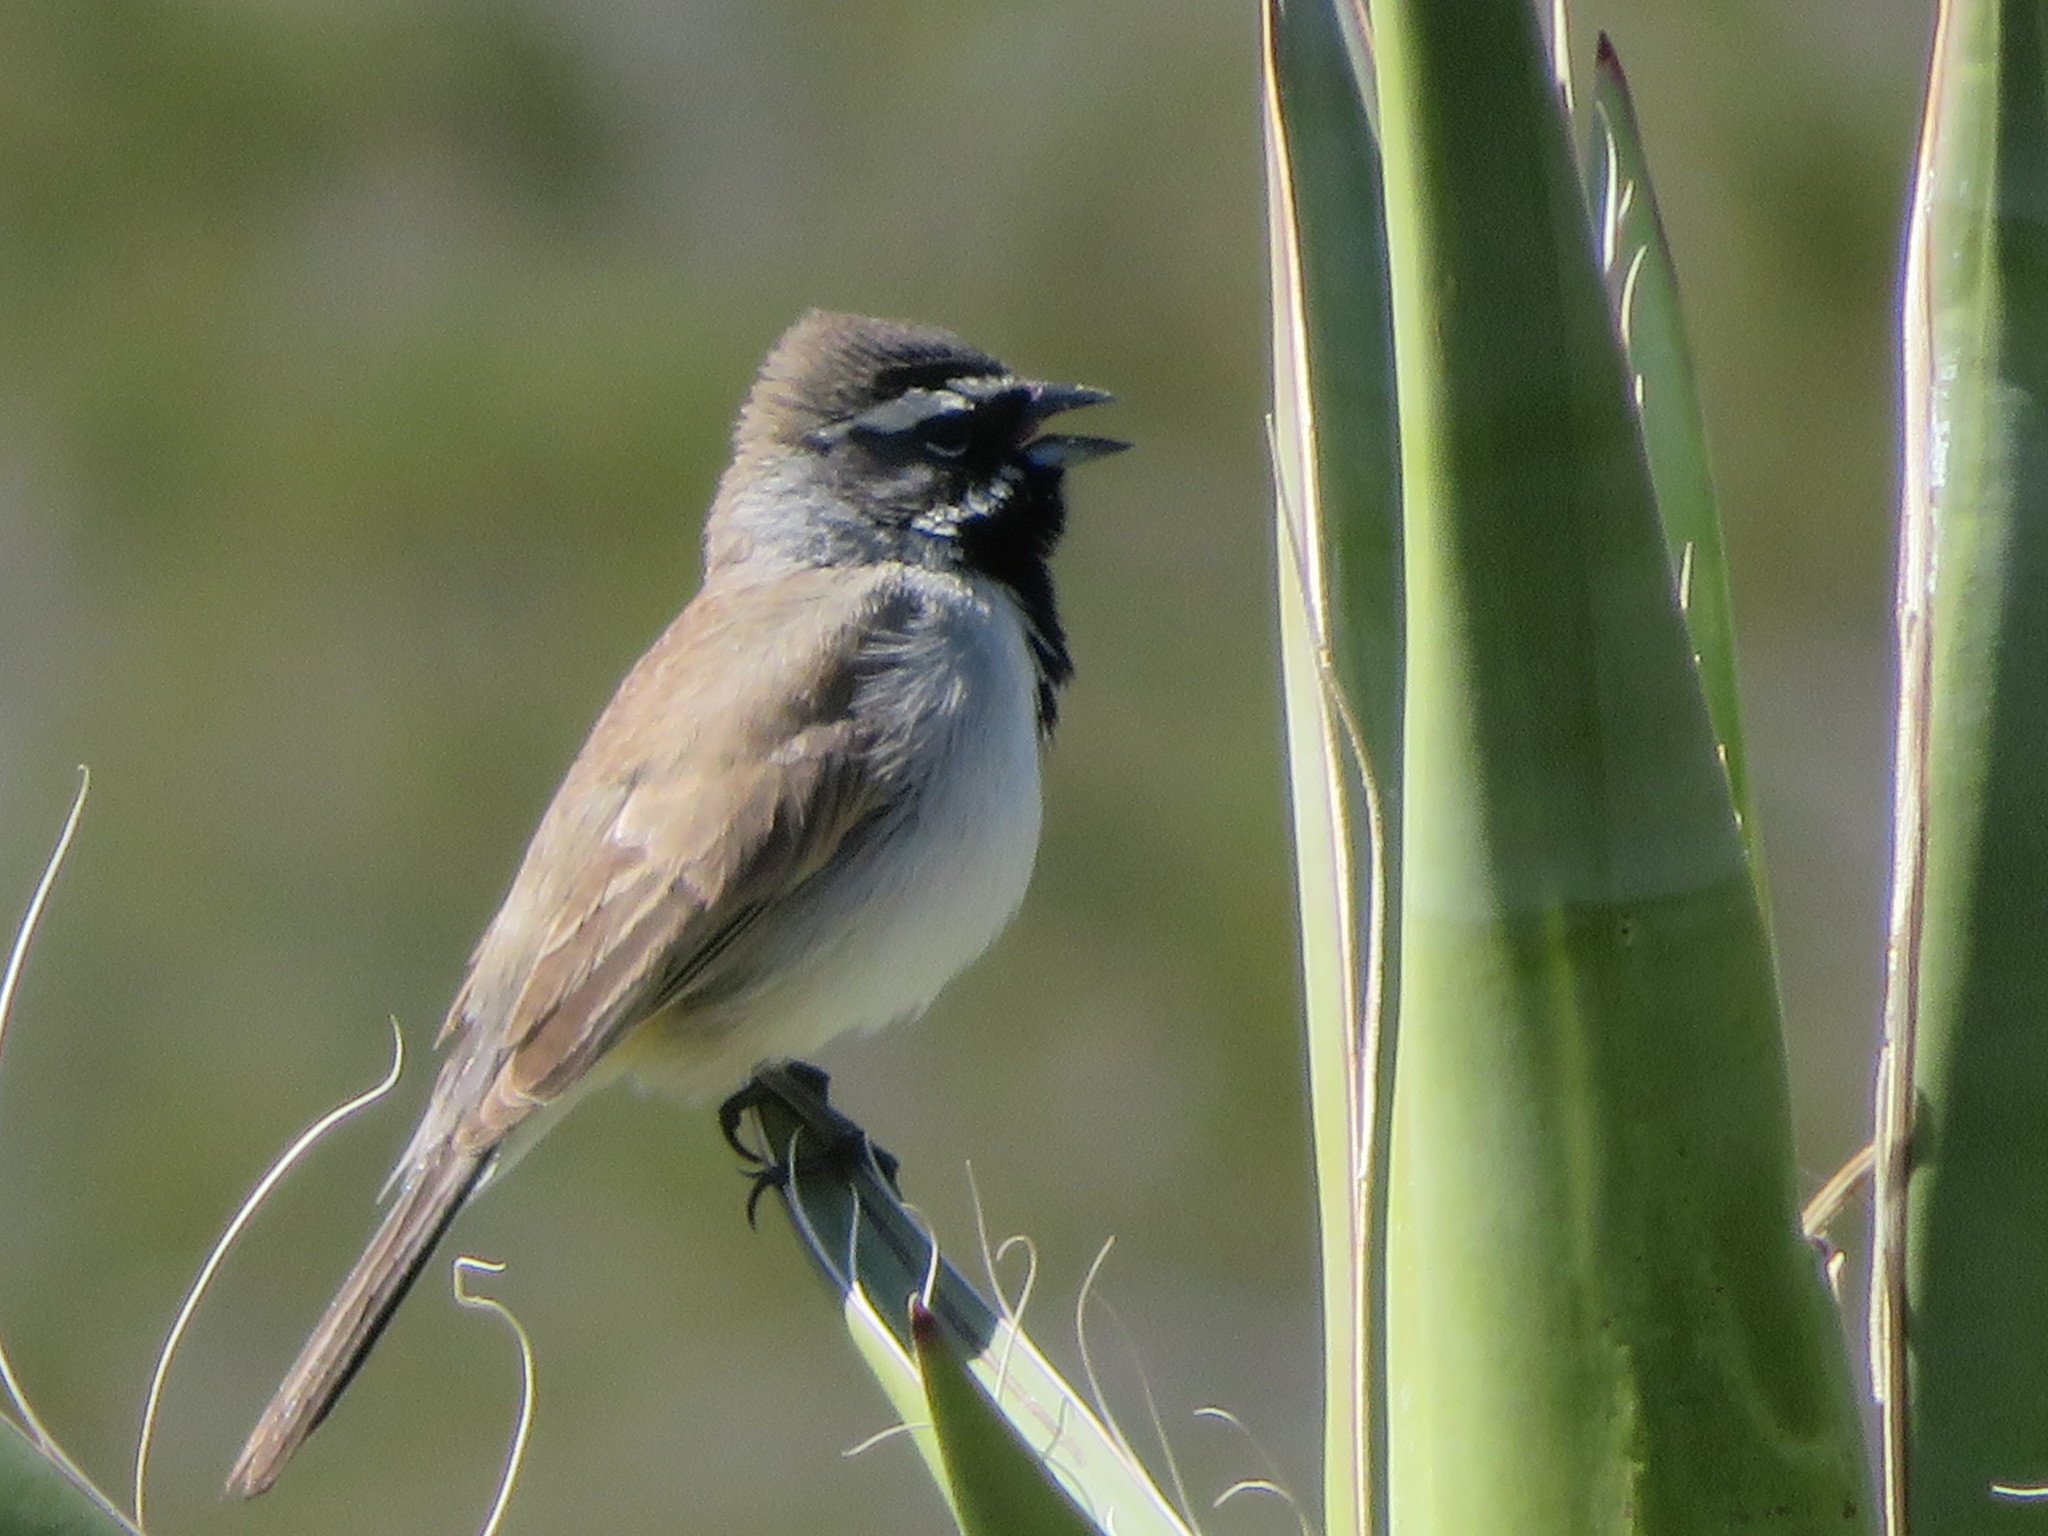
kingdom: Animalia
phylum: Chordata
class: Aves
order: Passeriformes
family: Passerellidae
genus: Amphispiza
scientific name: Amphispiza bilineata
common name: Black-throated sparrow
